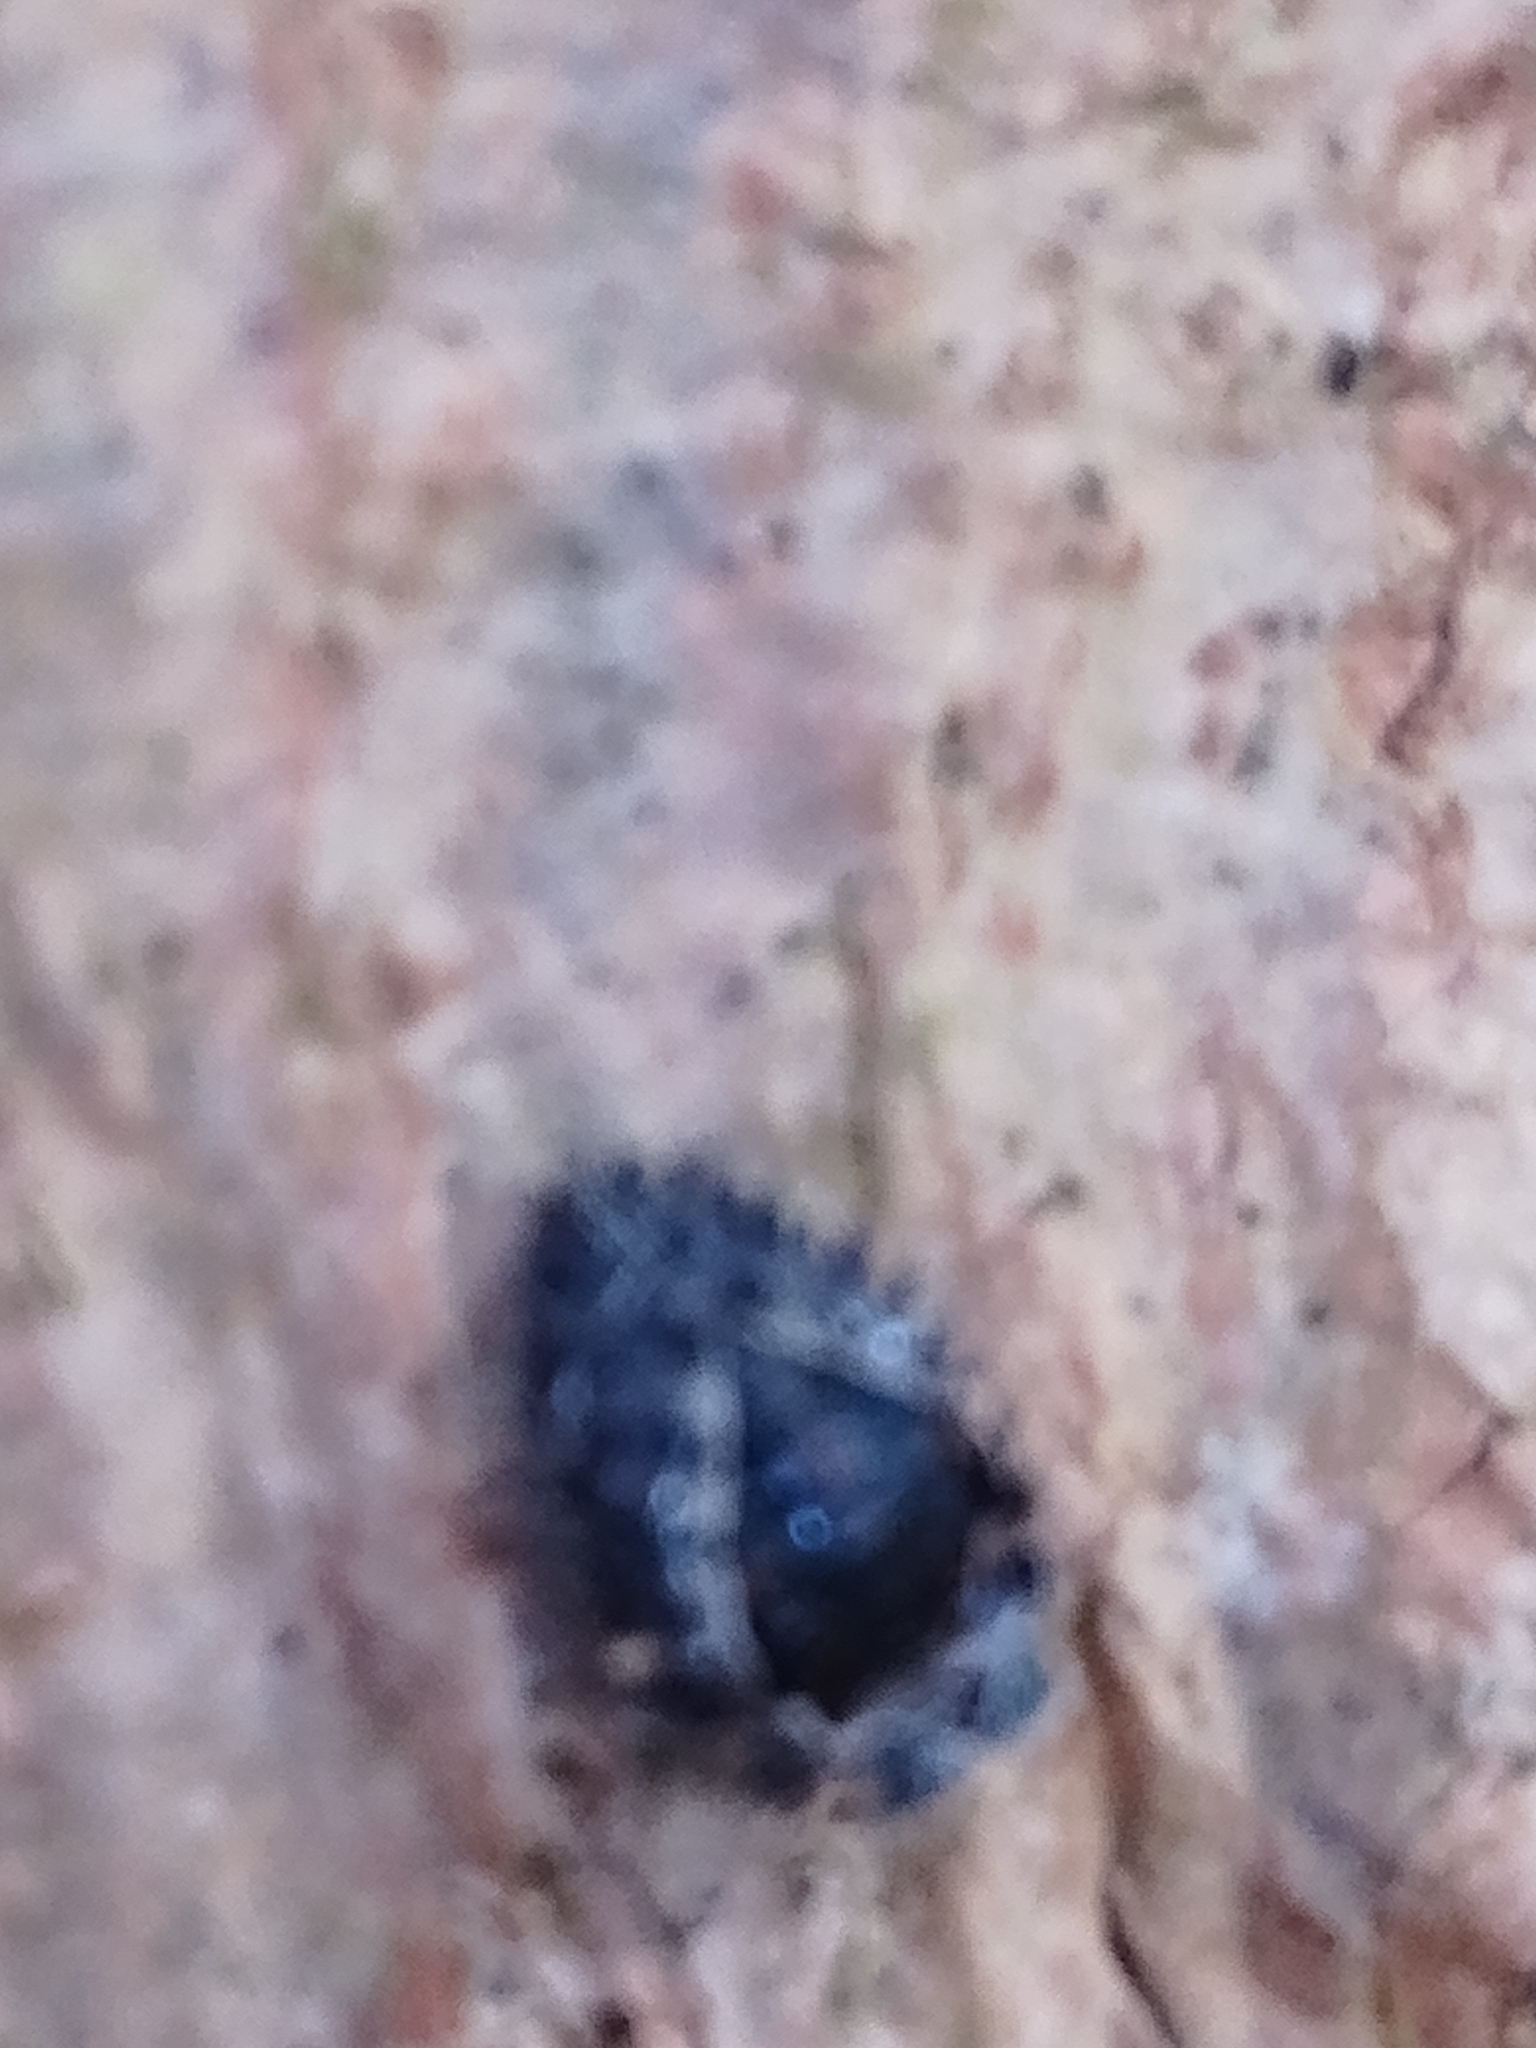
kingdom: Animalia
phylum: Arthropoda
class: Insecta
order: Coleoptera
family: Coccinellidae
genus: Brumus
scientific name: Brumus quadripustulatus
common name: Ladybird beetle
